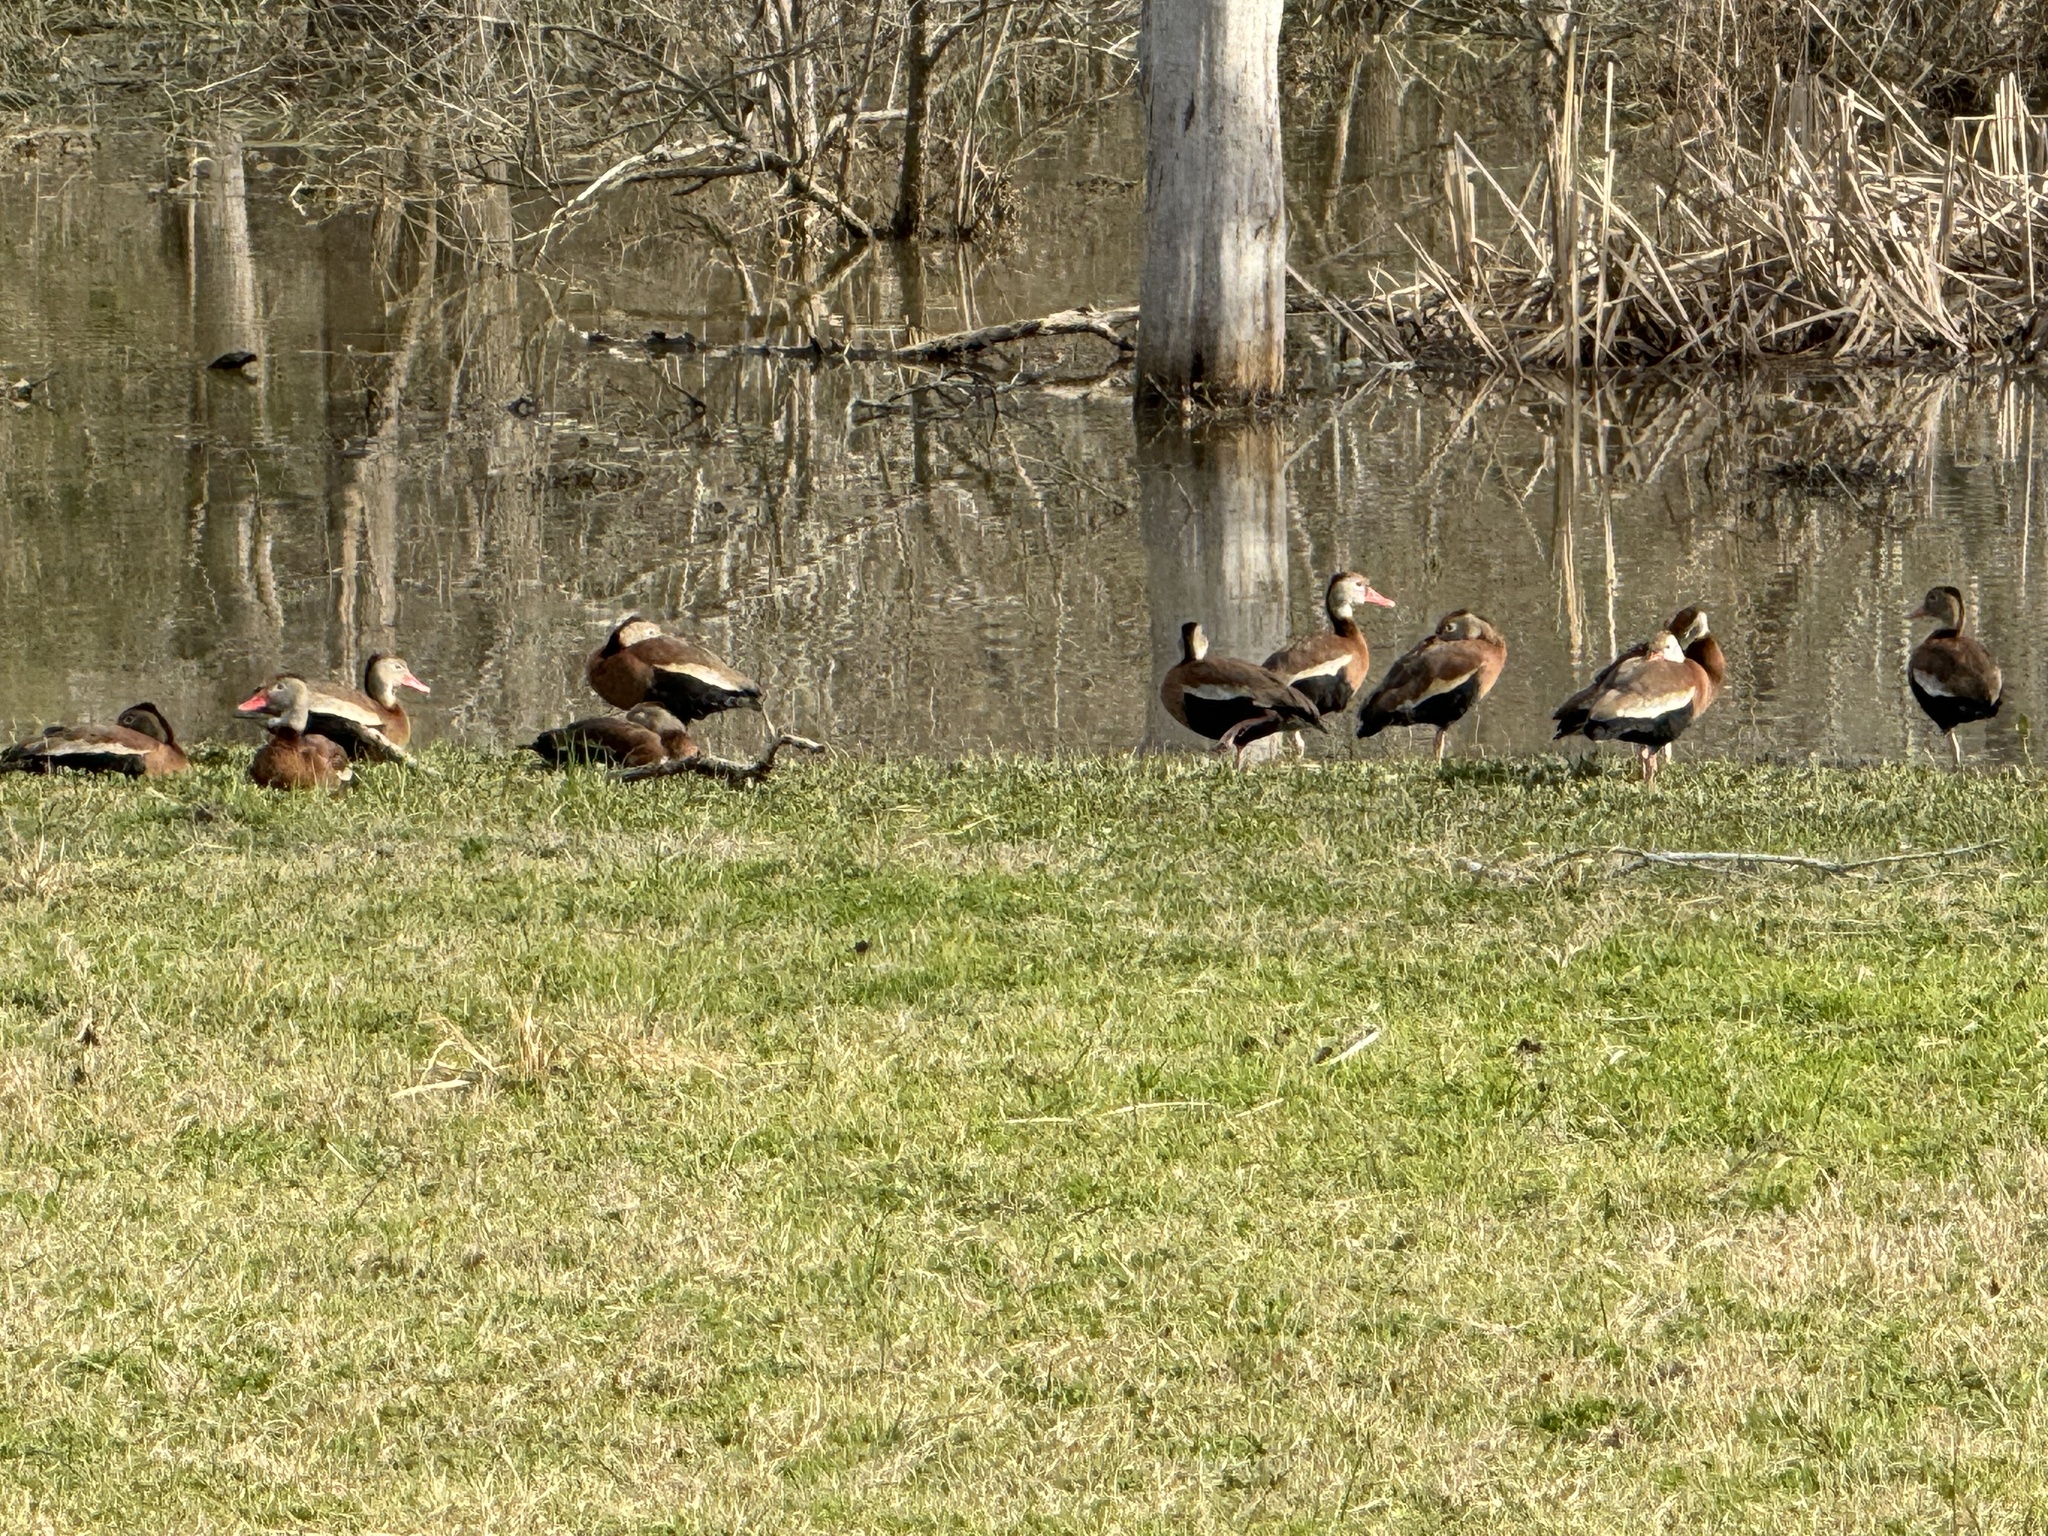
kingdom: Animalia
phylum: Chordata
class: Aves
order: Anseriformes
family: Anatidae
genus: Dendrocygna
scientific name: Dendrocygna autumnalis
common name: Black-bellied whistling duck
